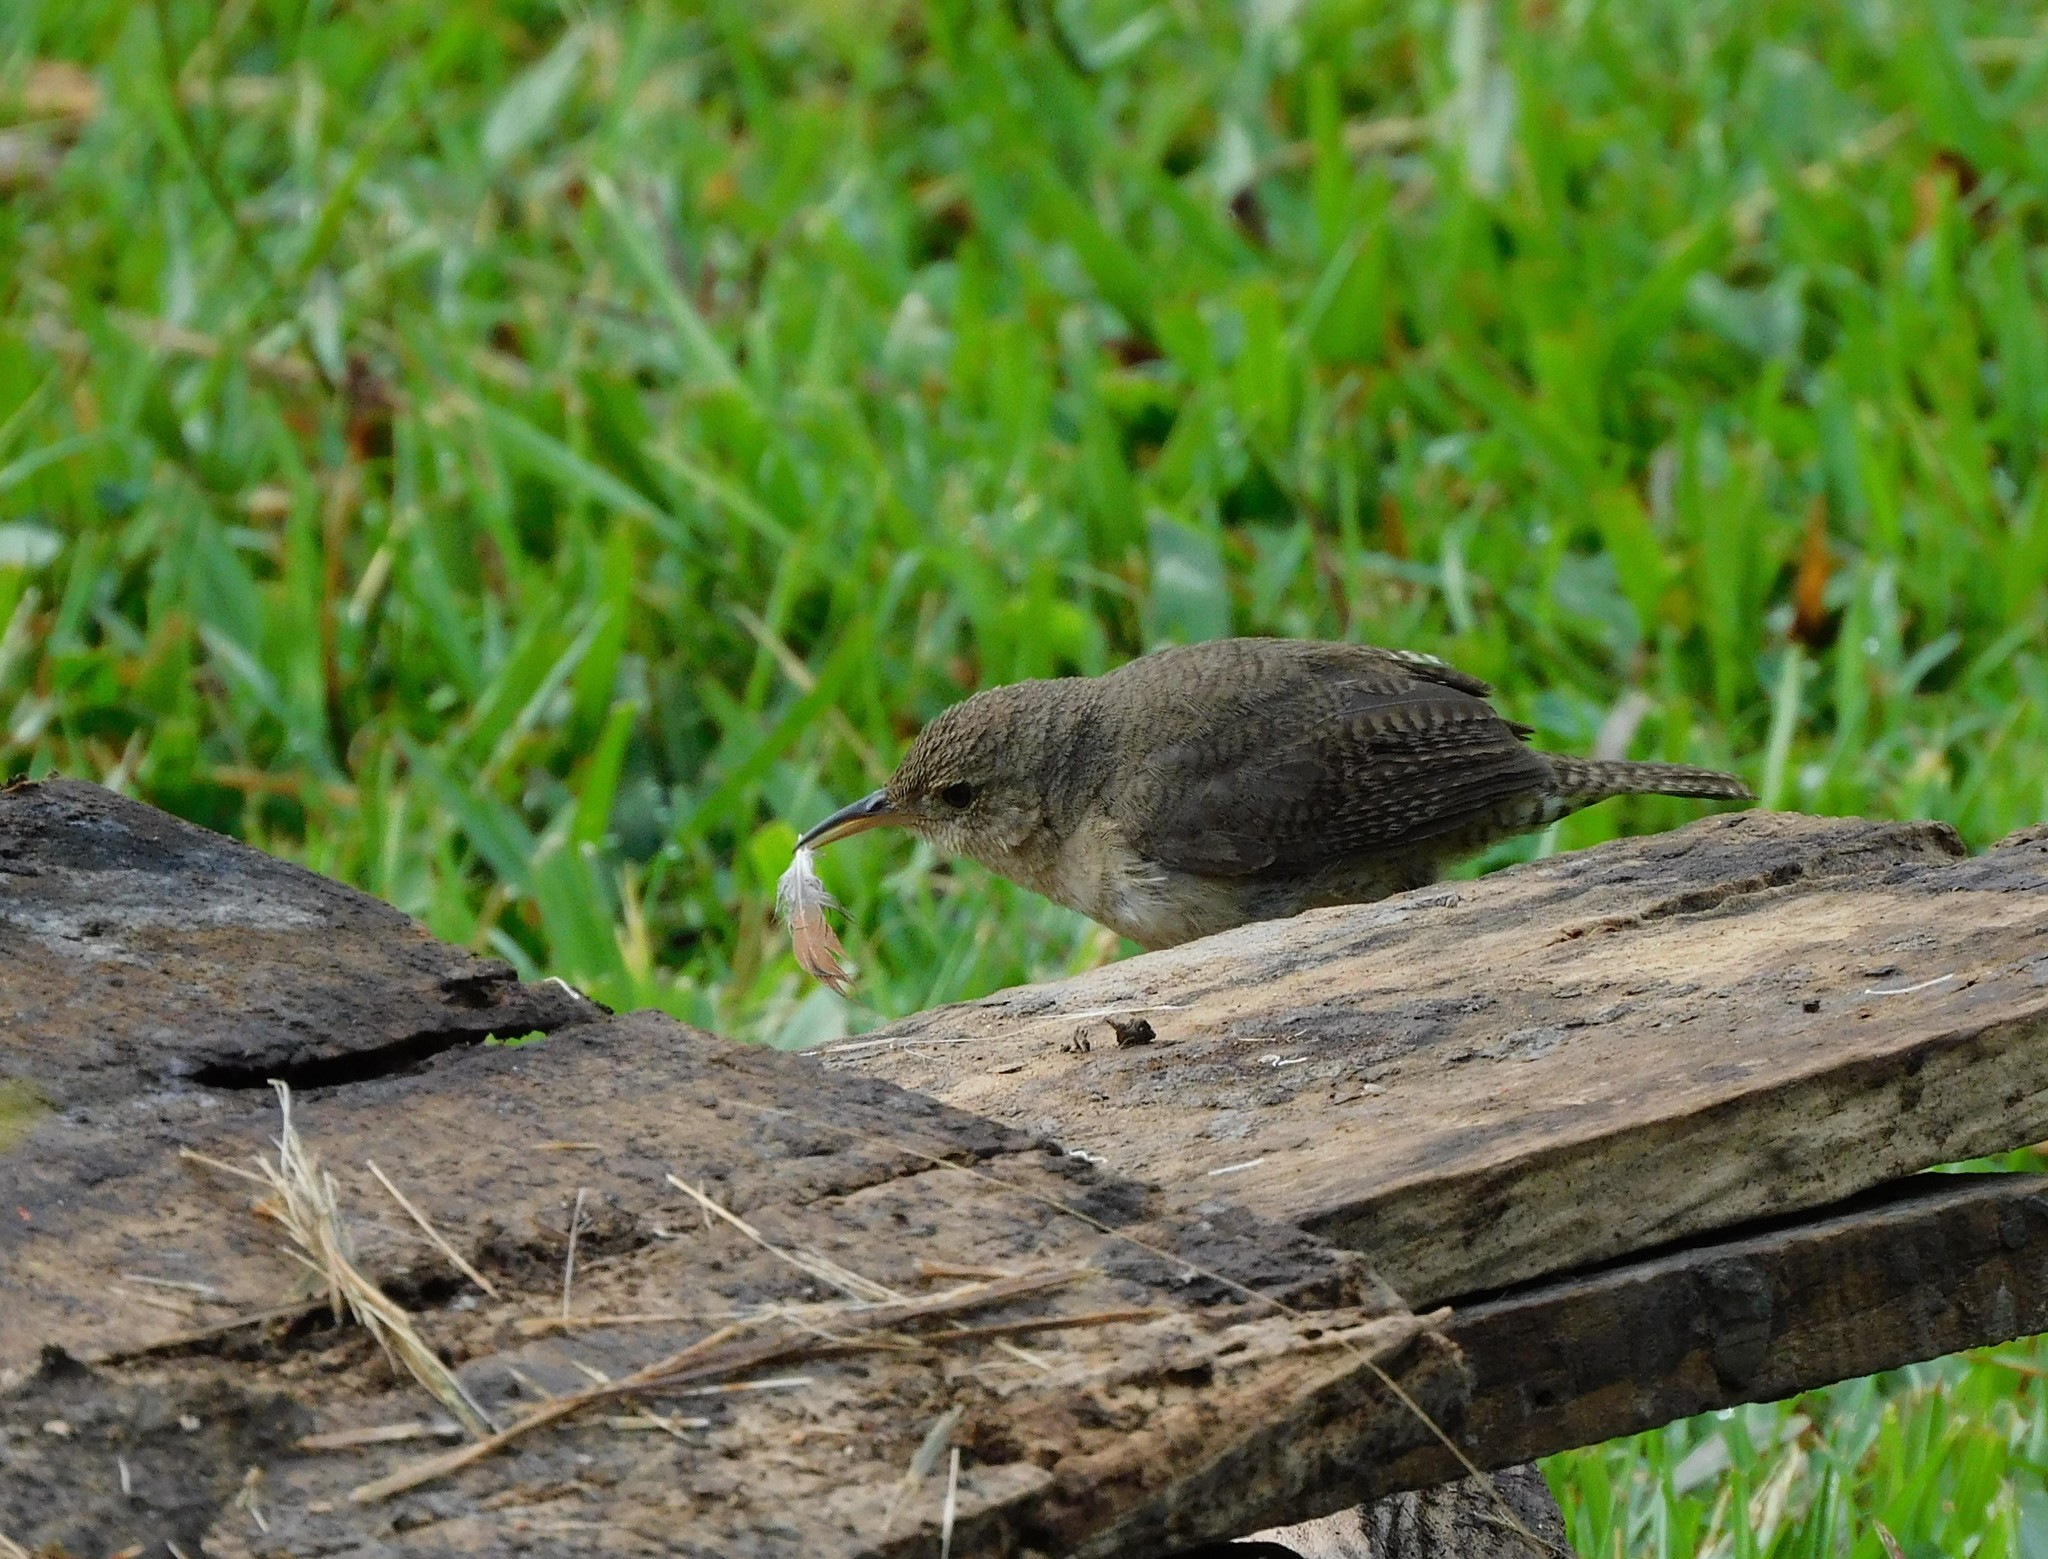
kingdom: Animalia
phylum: Chordata
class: Aves
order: Passeriformes
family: Troglodytidae
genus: Troglodytes
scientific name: Troglodytes aedon
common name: House wren
